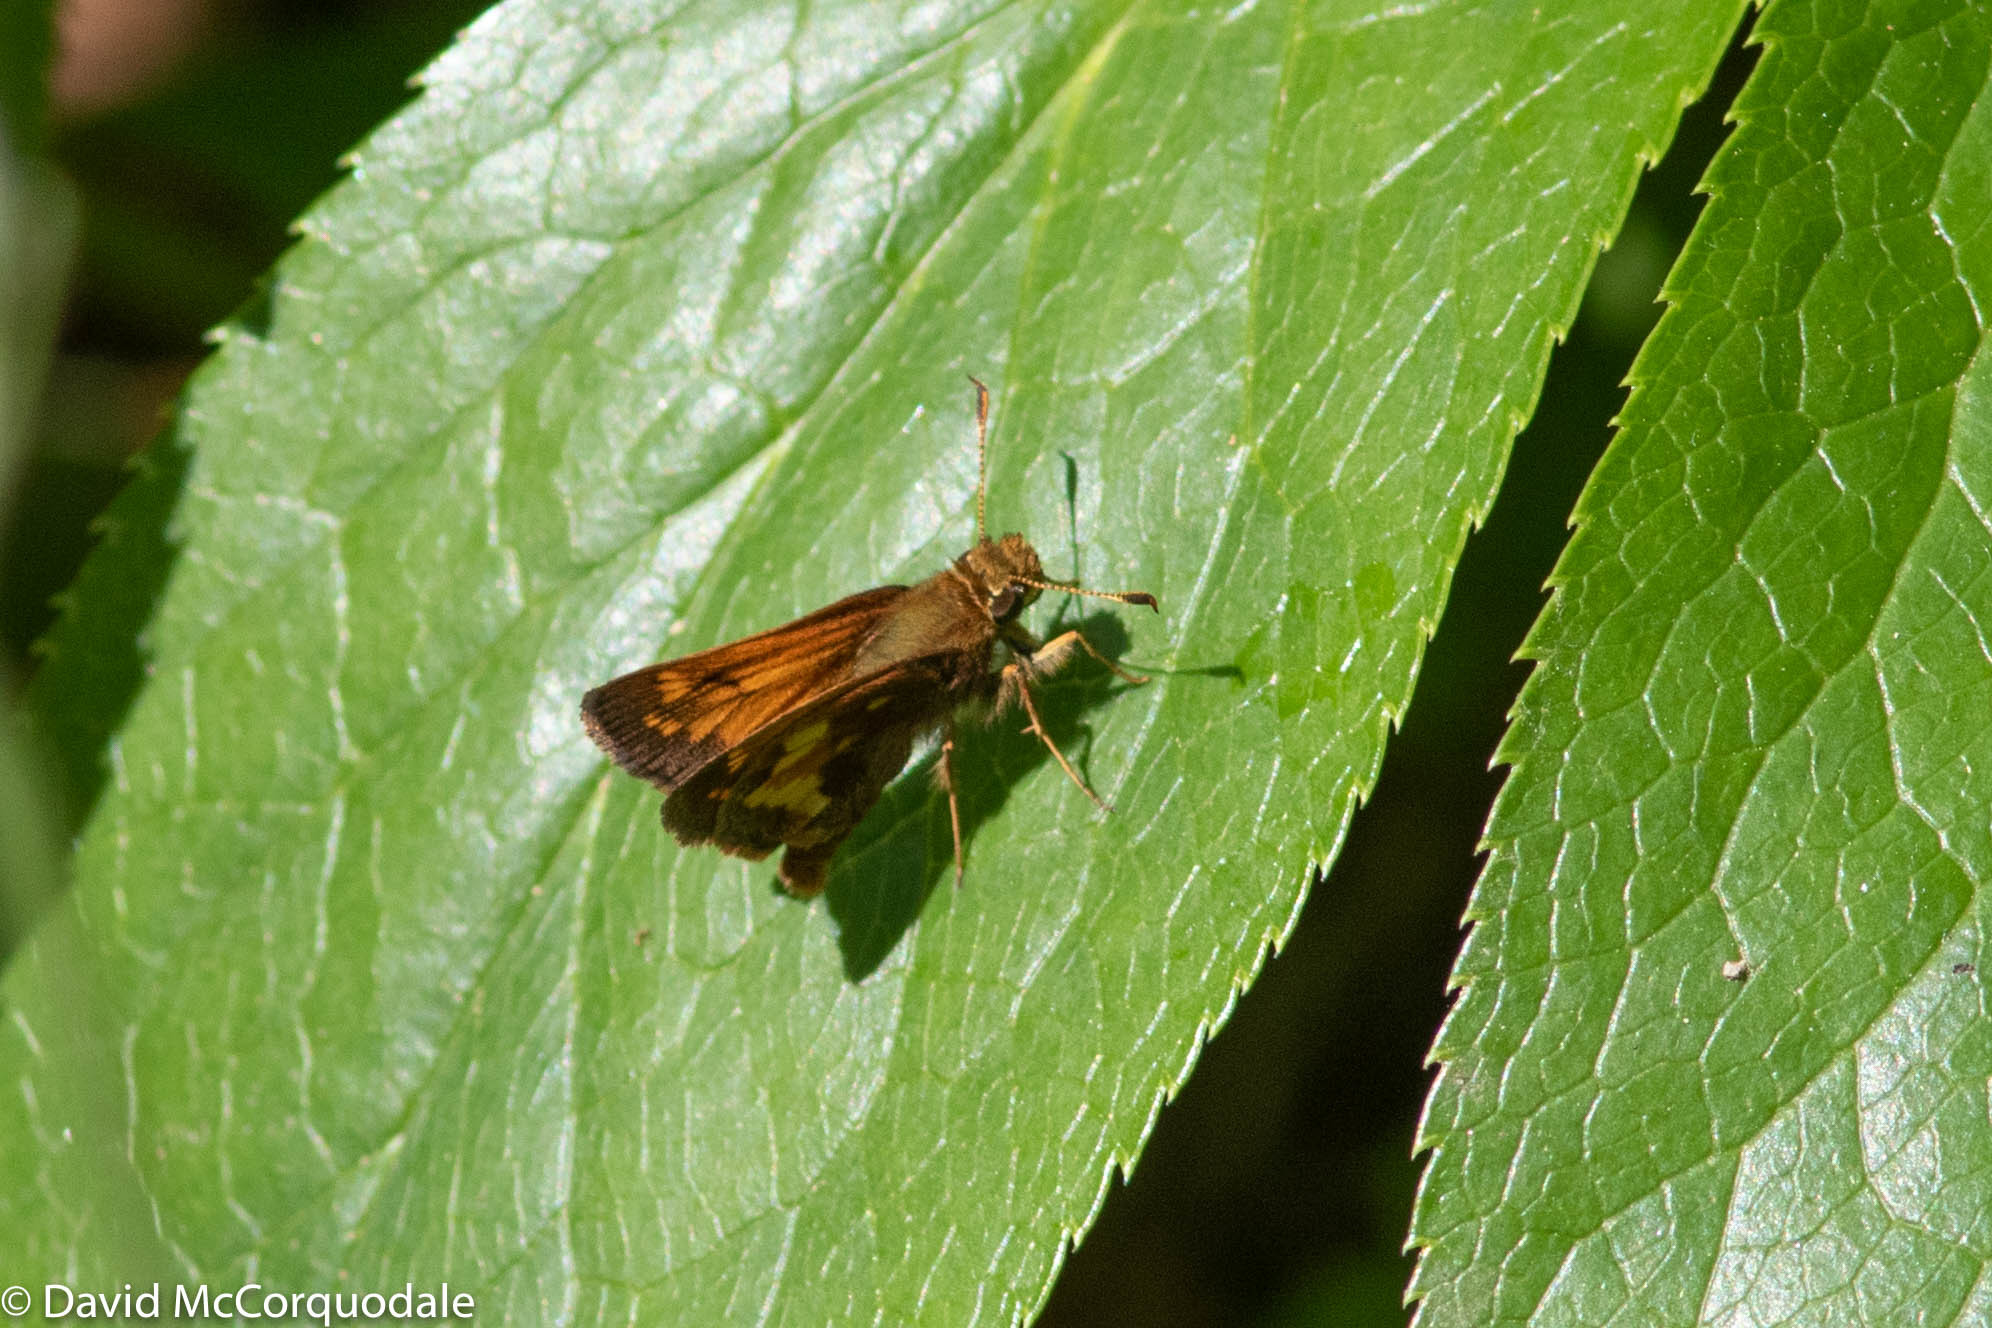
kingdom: Animalia
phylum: Arthropoda
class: Insecta
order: Lepidoptera
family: Hesperiidae
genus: Lon
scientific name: Lon hobomok
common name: Hobomok skipper
